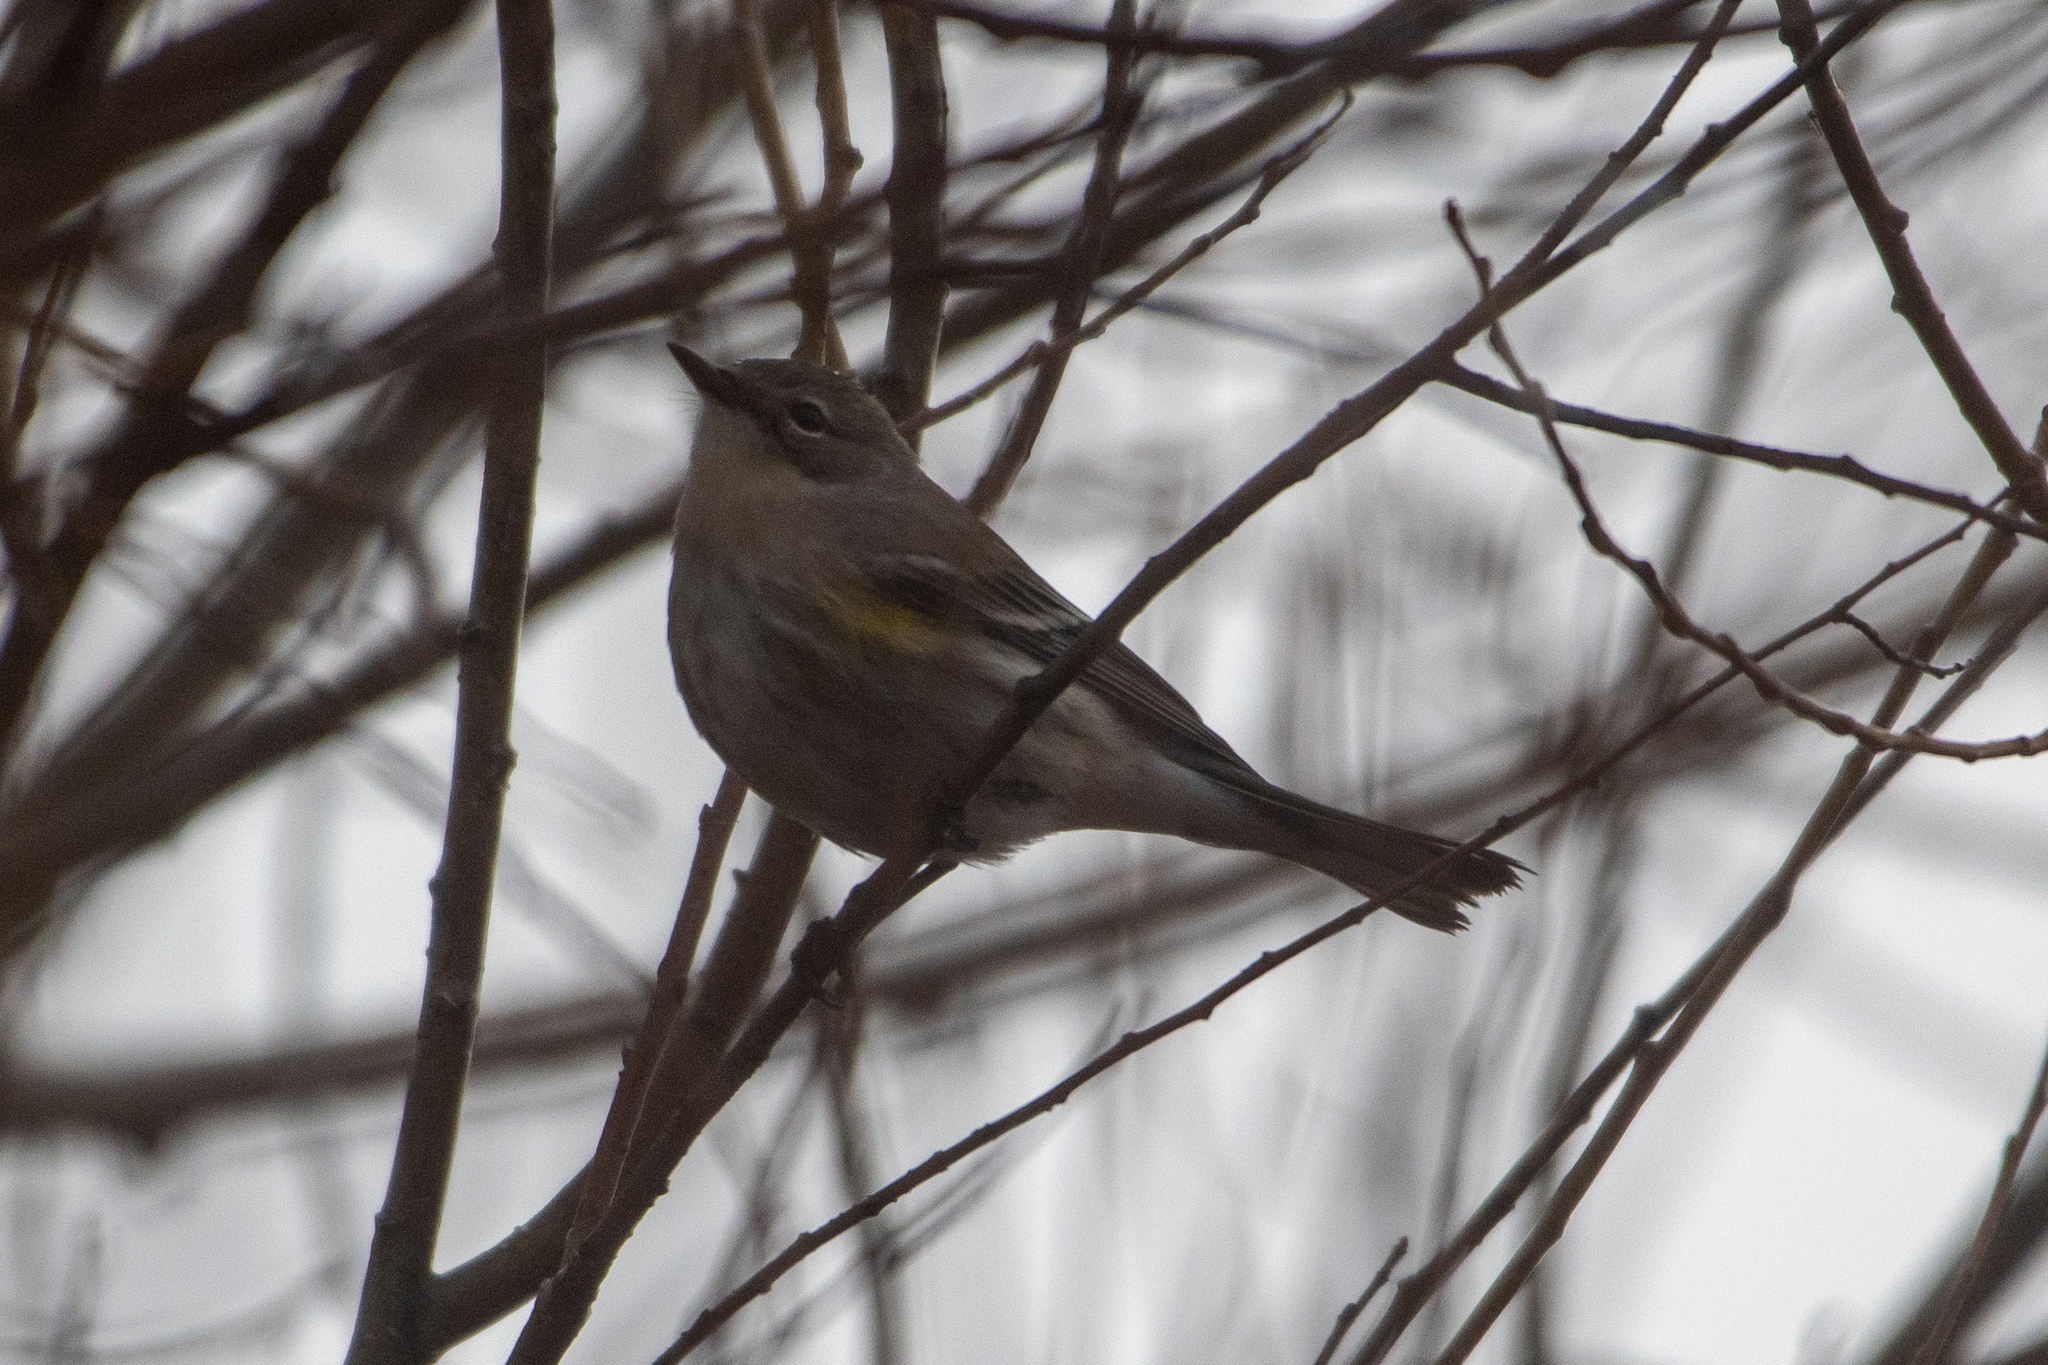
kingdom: Animalia
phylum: Chordata
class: Aves
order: Passeriformes
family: Parulidae
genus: Setophaga
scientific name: Setophaga coronata
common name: Myrtle warbler
